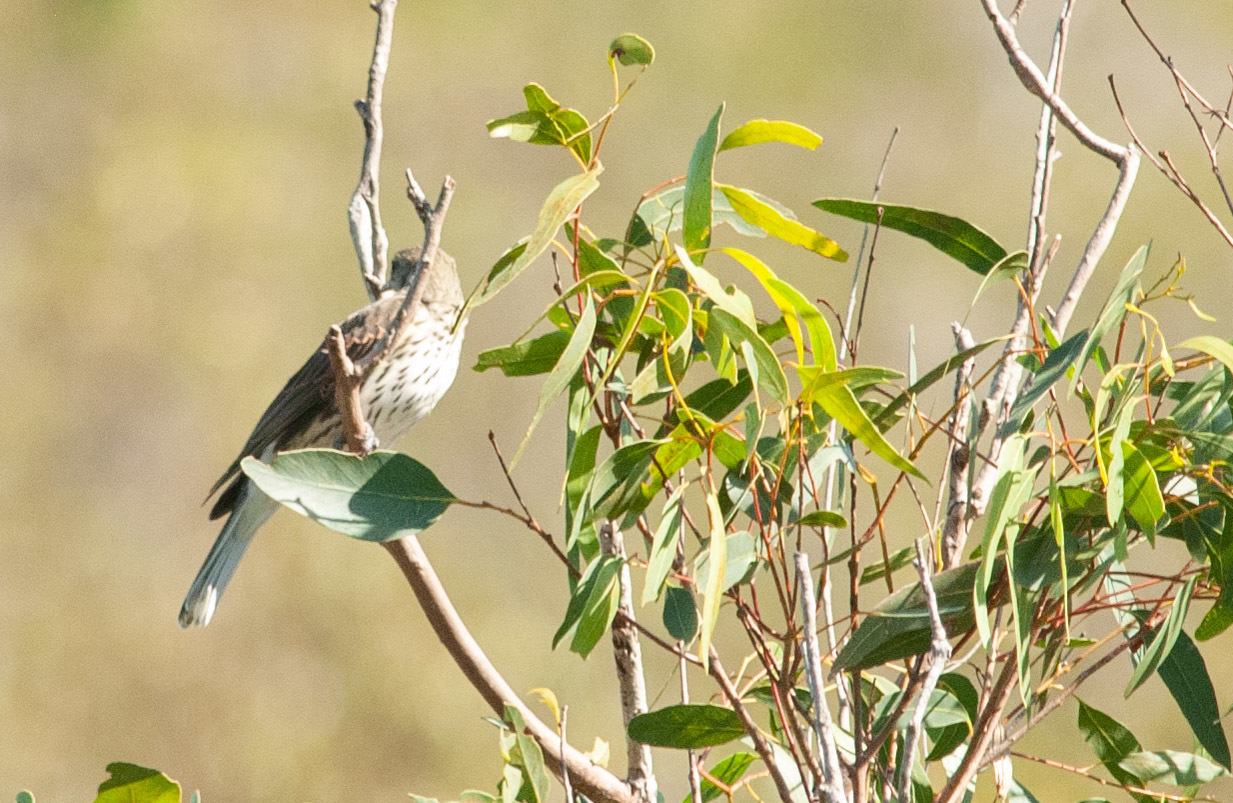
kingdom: Animalia
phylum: Chordata
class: Aves
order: Passeriformes
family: Oriolidae
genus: Oriolus
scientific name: Oriolus sagittatus
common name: Olive-backed oriole
